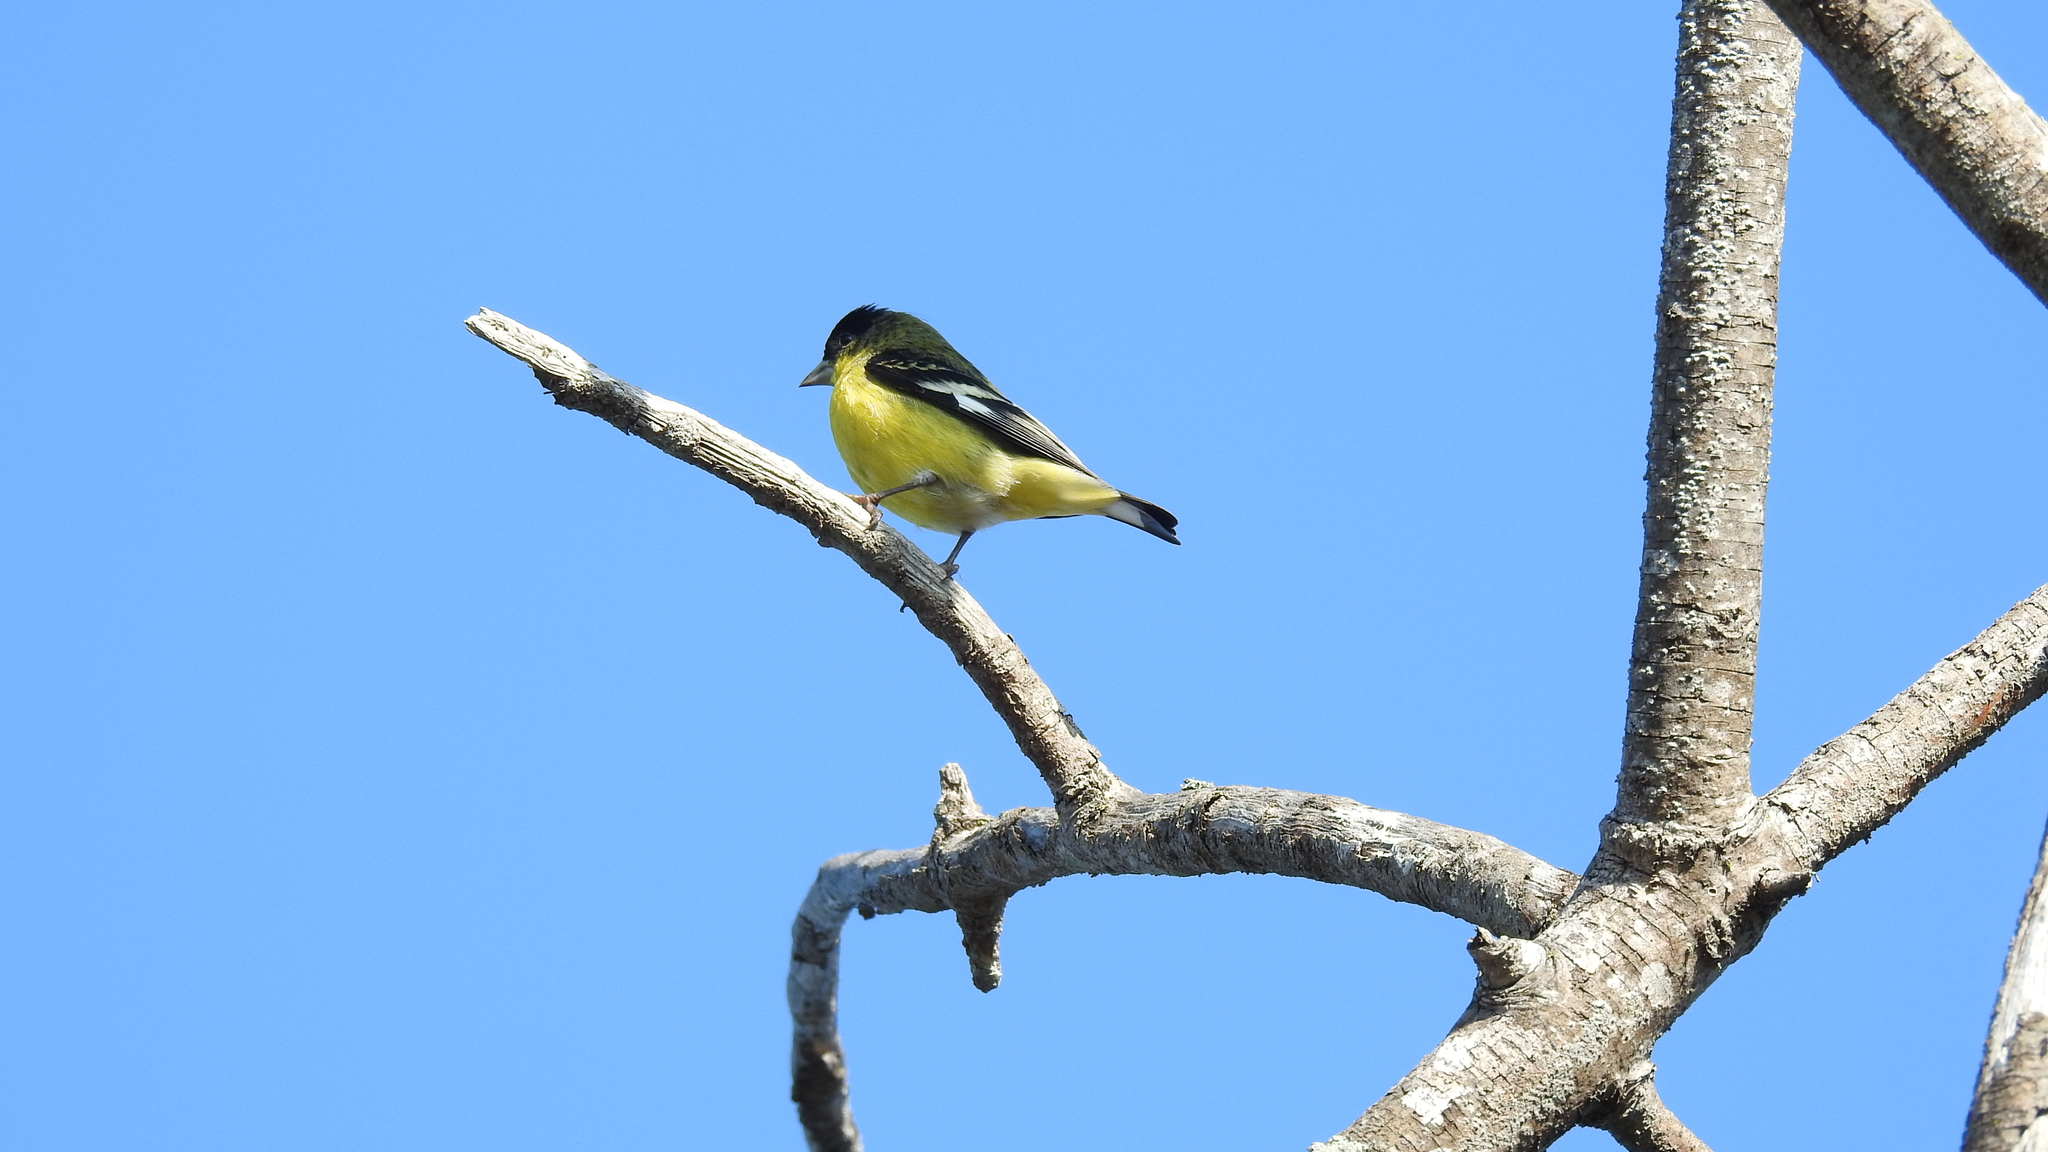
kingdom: Animalia
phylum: Chordata
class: Aves
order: Passeriformes
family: Fringillidae
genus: Spinus
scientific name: Spinus psaltria
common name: Lesser goldfinch
